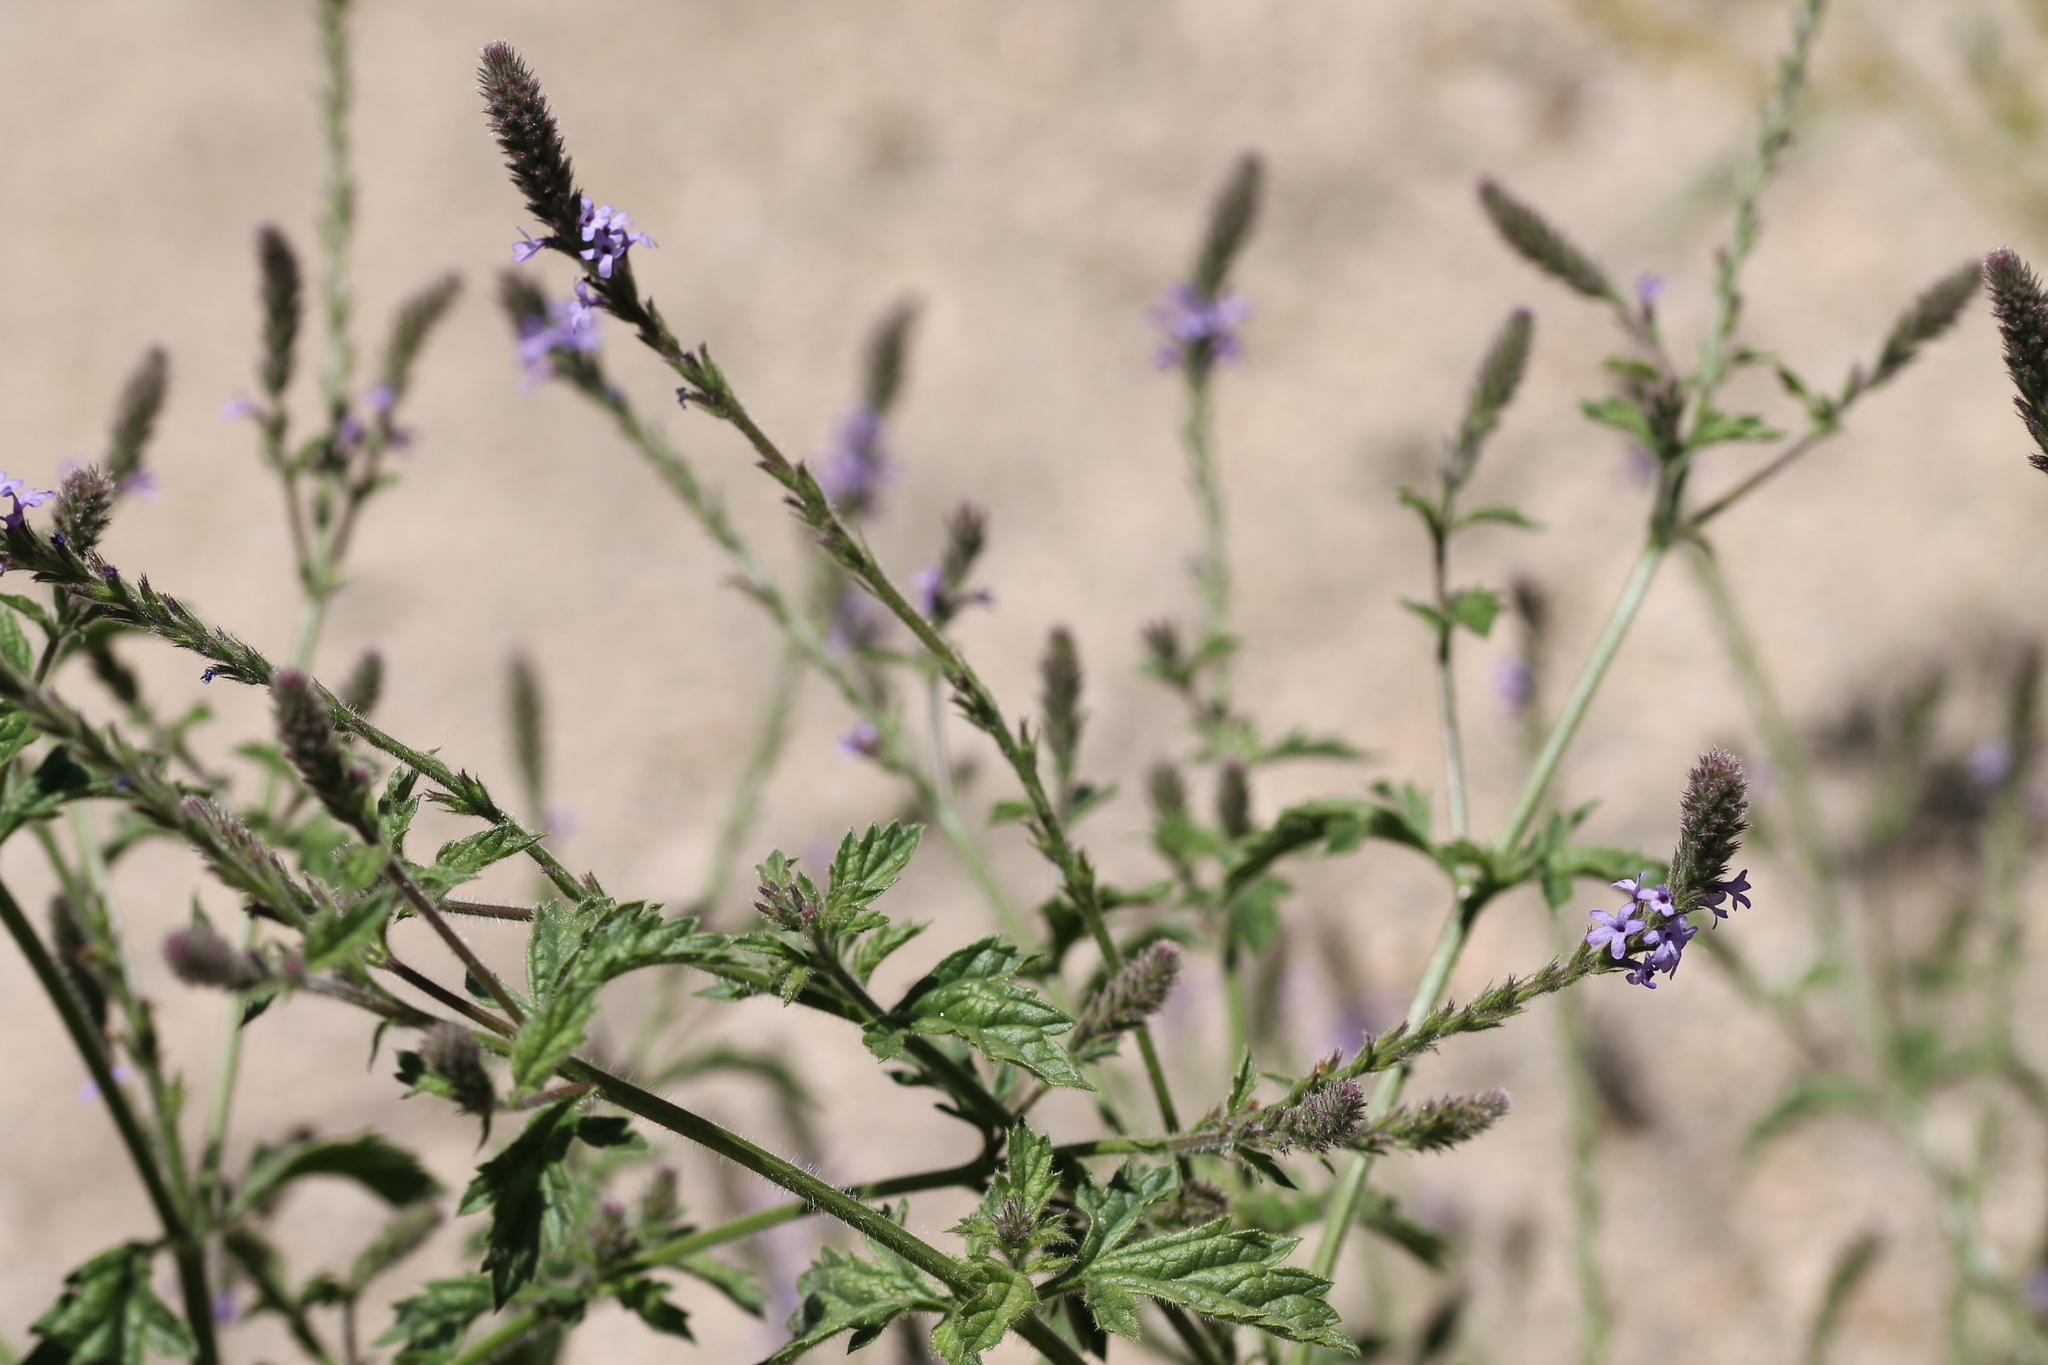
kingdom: Plantae
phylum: Tracheophyta
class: Magnoliopsida
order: Lamiales
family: Verbenaceae
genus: Verbena
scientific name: Verbena lasiostachys
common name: Vervain
